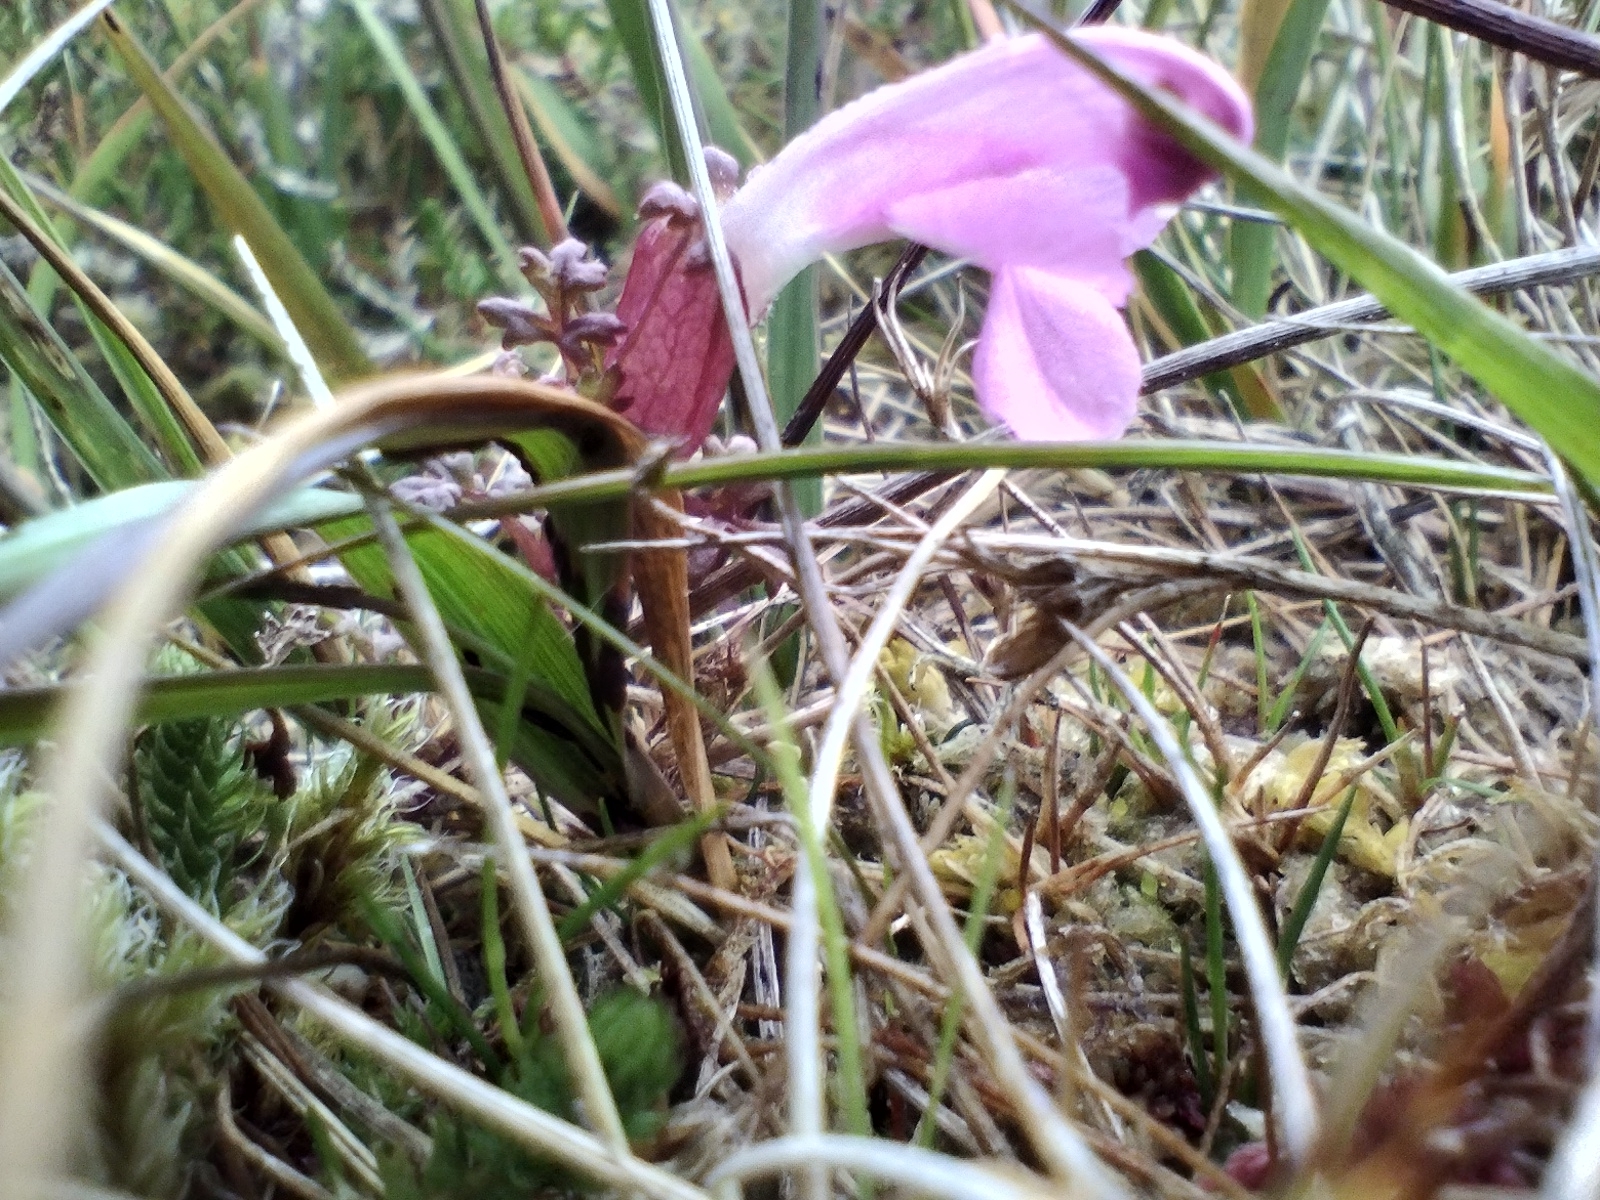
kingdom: Plantae
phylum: Tracheophyta
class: Magnoliopsida
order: Lamiales
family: Orobanchaceae
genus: Pedicularis
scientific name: Pedicularis sylvatica
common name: Lousewort
